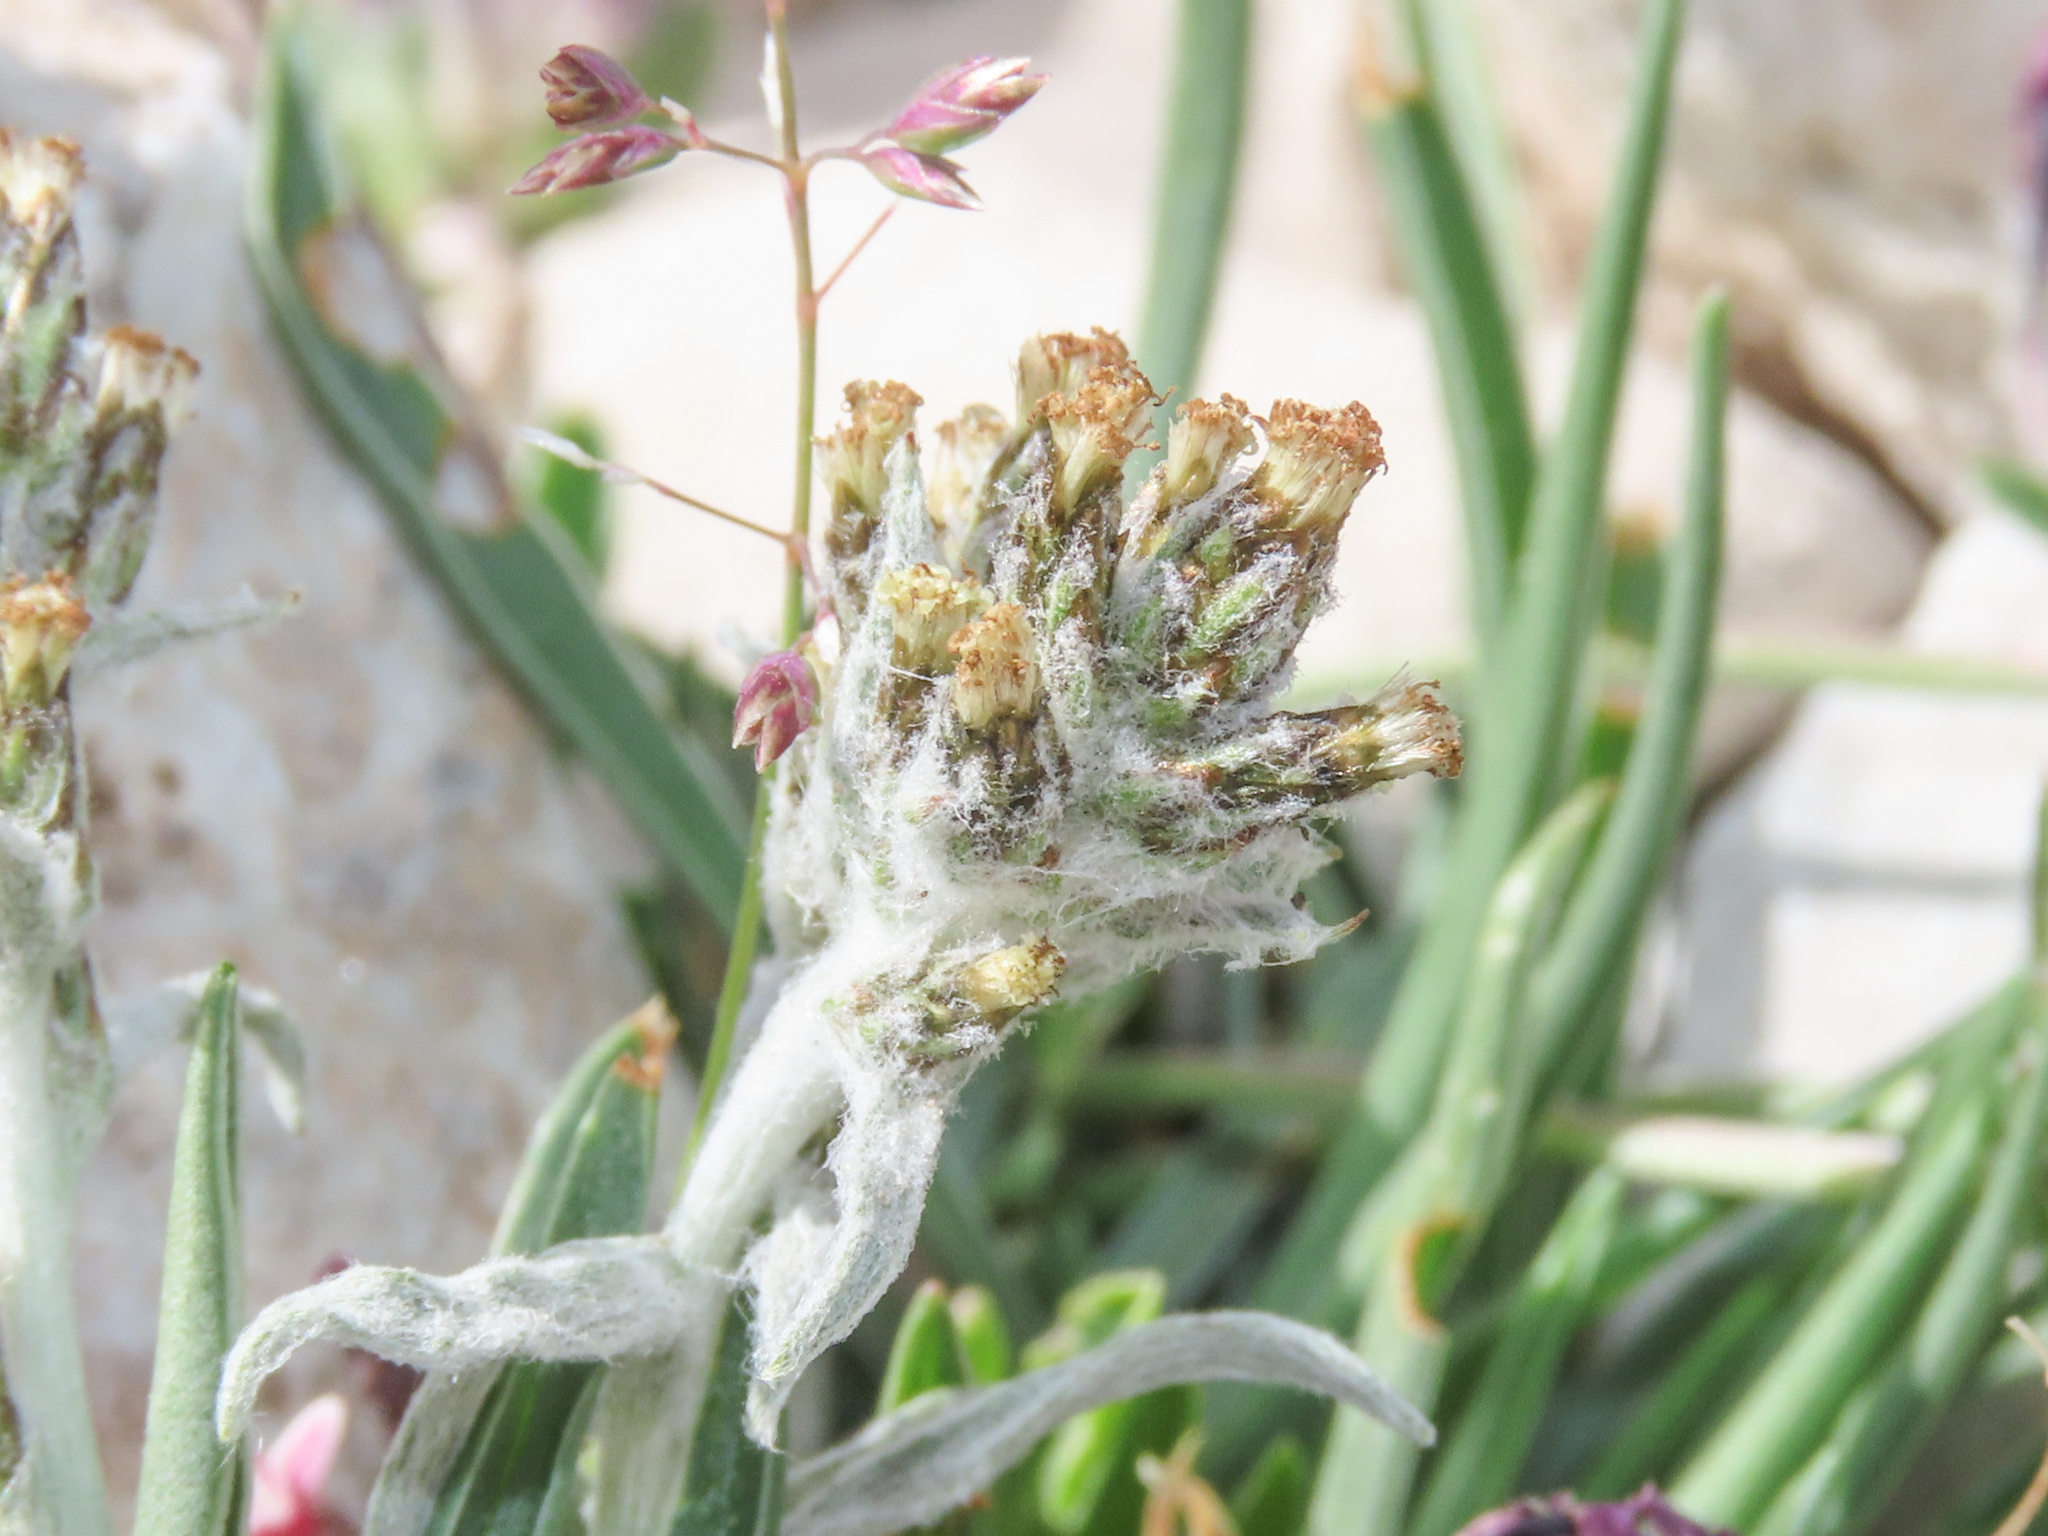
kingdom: Plantae
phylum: Tracheophyta
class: Magnoliopsida
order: Asterales
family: Asteraceae
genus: Omalotheca
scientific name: Omalotheca diminuta
